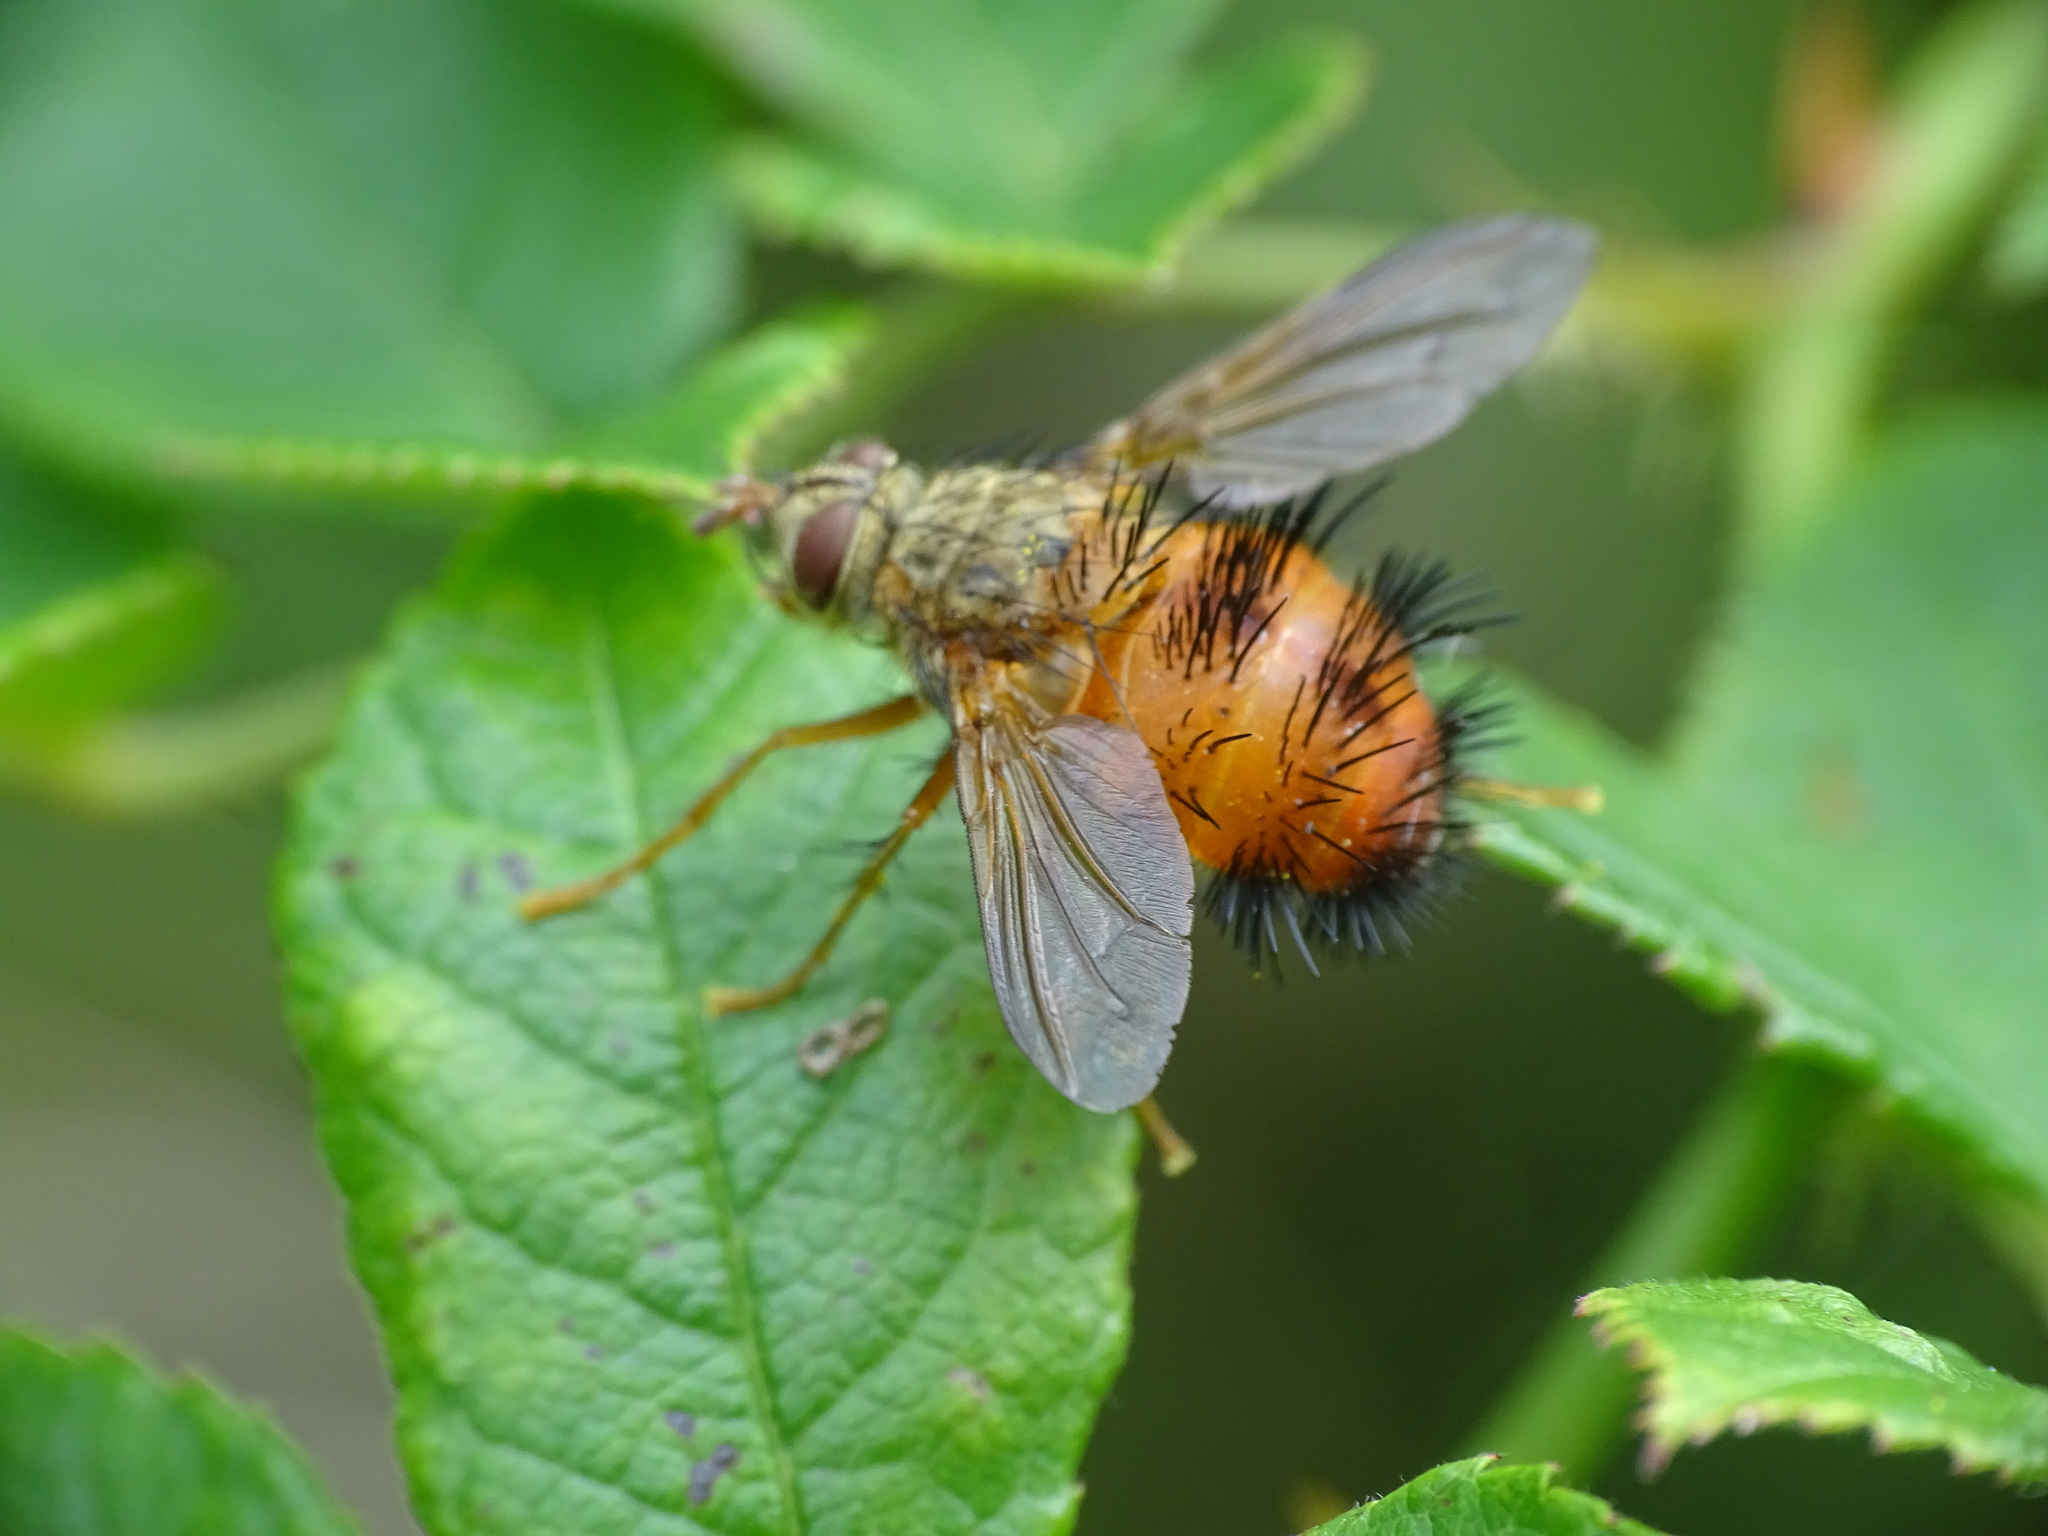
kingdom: Animalia
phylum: Arthropoda
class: Insecta
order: Diptera
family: Tachinidae
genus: Hystricia
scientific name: Hystricia abrupta
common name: Tomato bristle fly
